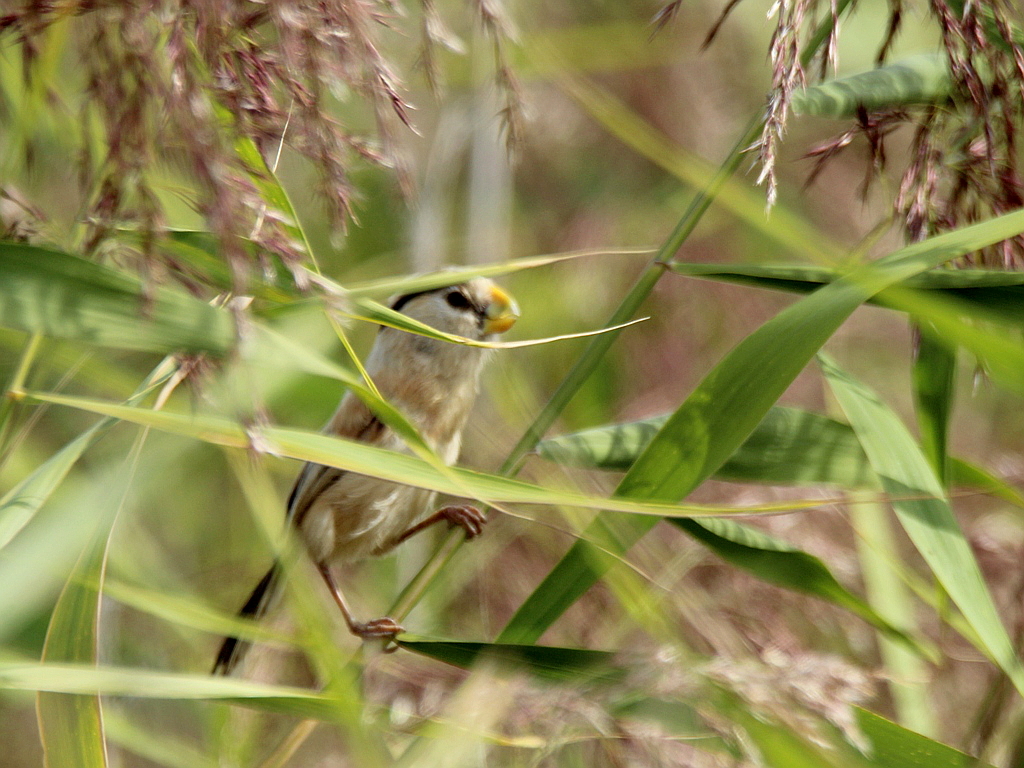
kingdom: Animalia
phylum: Chordata
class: Aves
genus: Calamornis
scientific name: Calamornis
